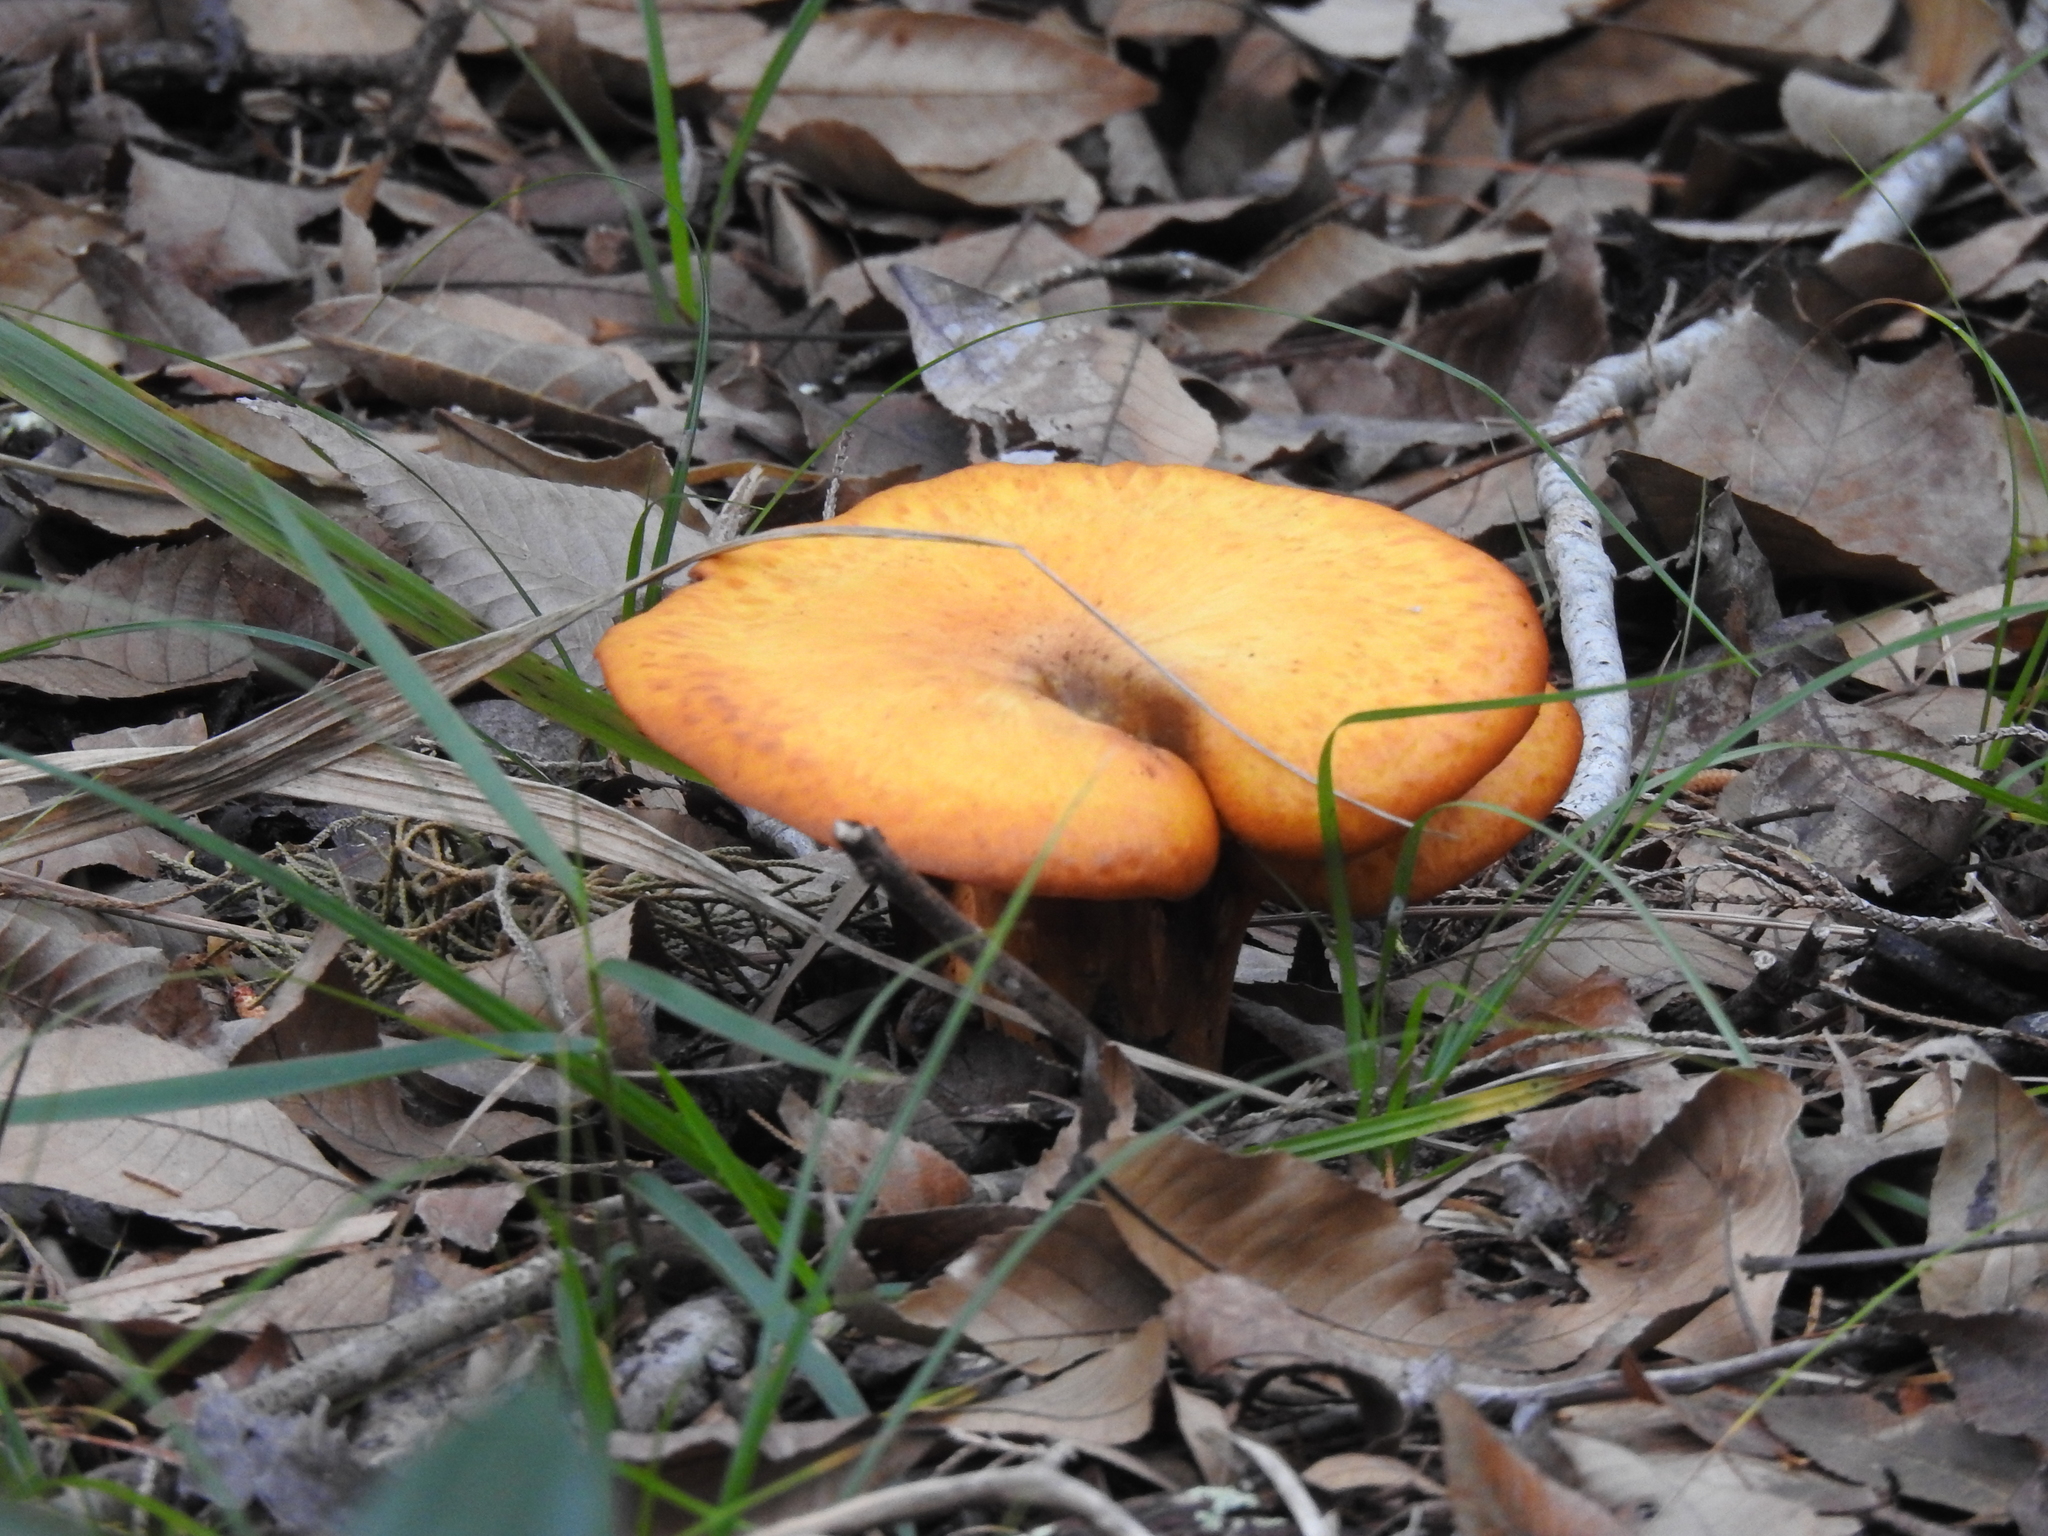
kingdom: Fungi
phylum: Basidiomycota
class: Agaricomycetes
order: Agaricales
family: Omphalotaceae
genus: Omphalotus
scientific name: Omphalotus subilludens
